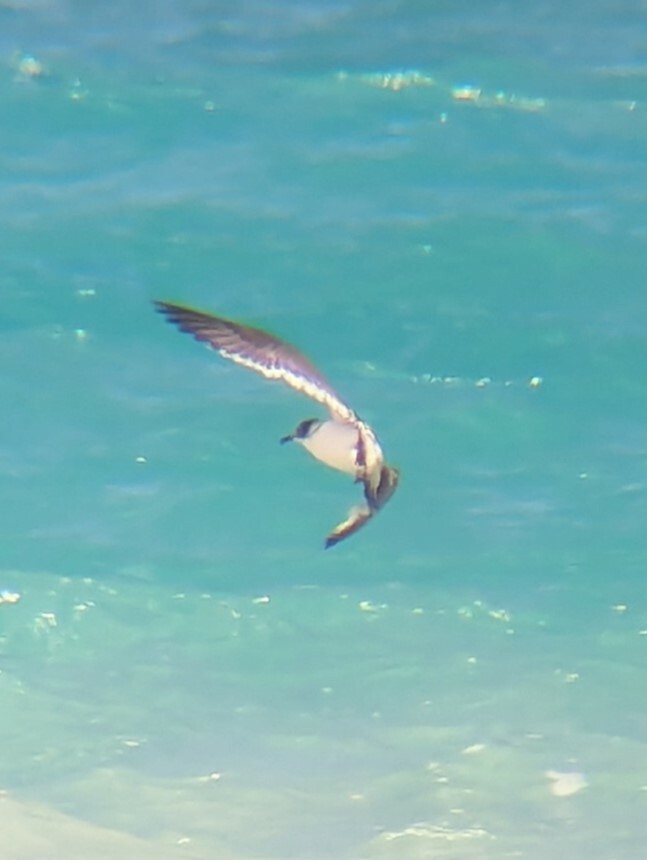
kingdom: Animalia
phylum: Chordata
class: Aves
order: Charadriiformes
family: Laridae
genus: Leucophaeus
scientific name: Leucophaeus pipixcan
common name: Franklin's gull
